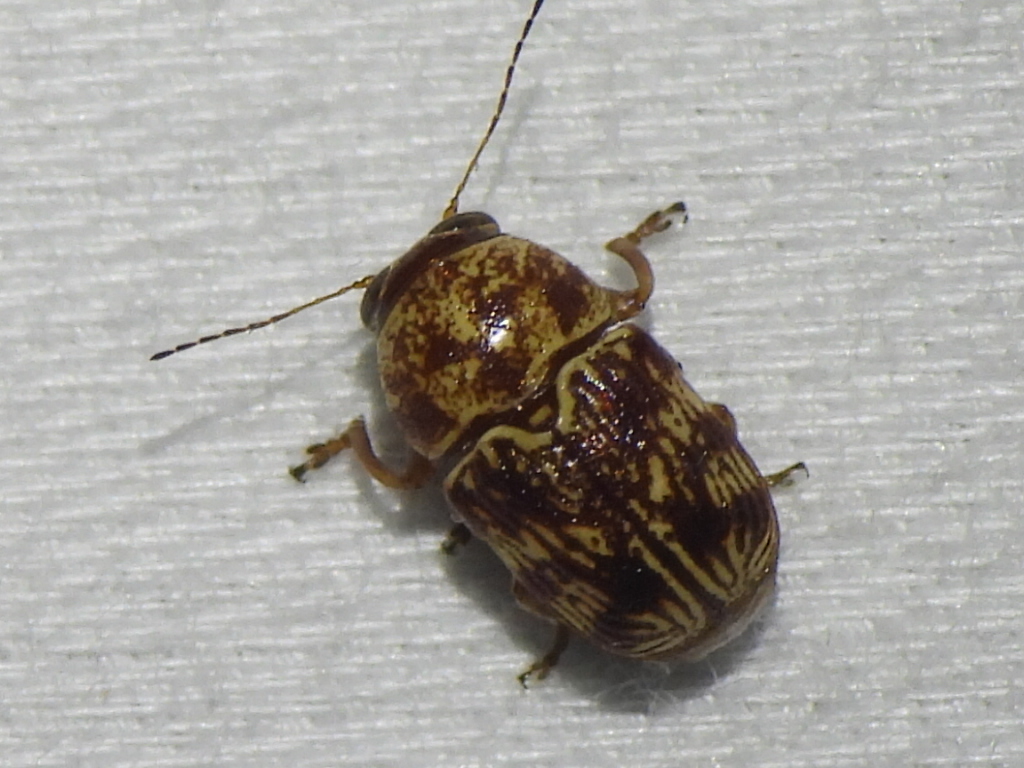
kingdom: Animalia
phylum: Arthropoda
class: Insecta
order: Coleoptera
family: Chrysomelidae
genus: Pachybrachis
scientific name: Pachybrachis
